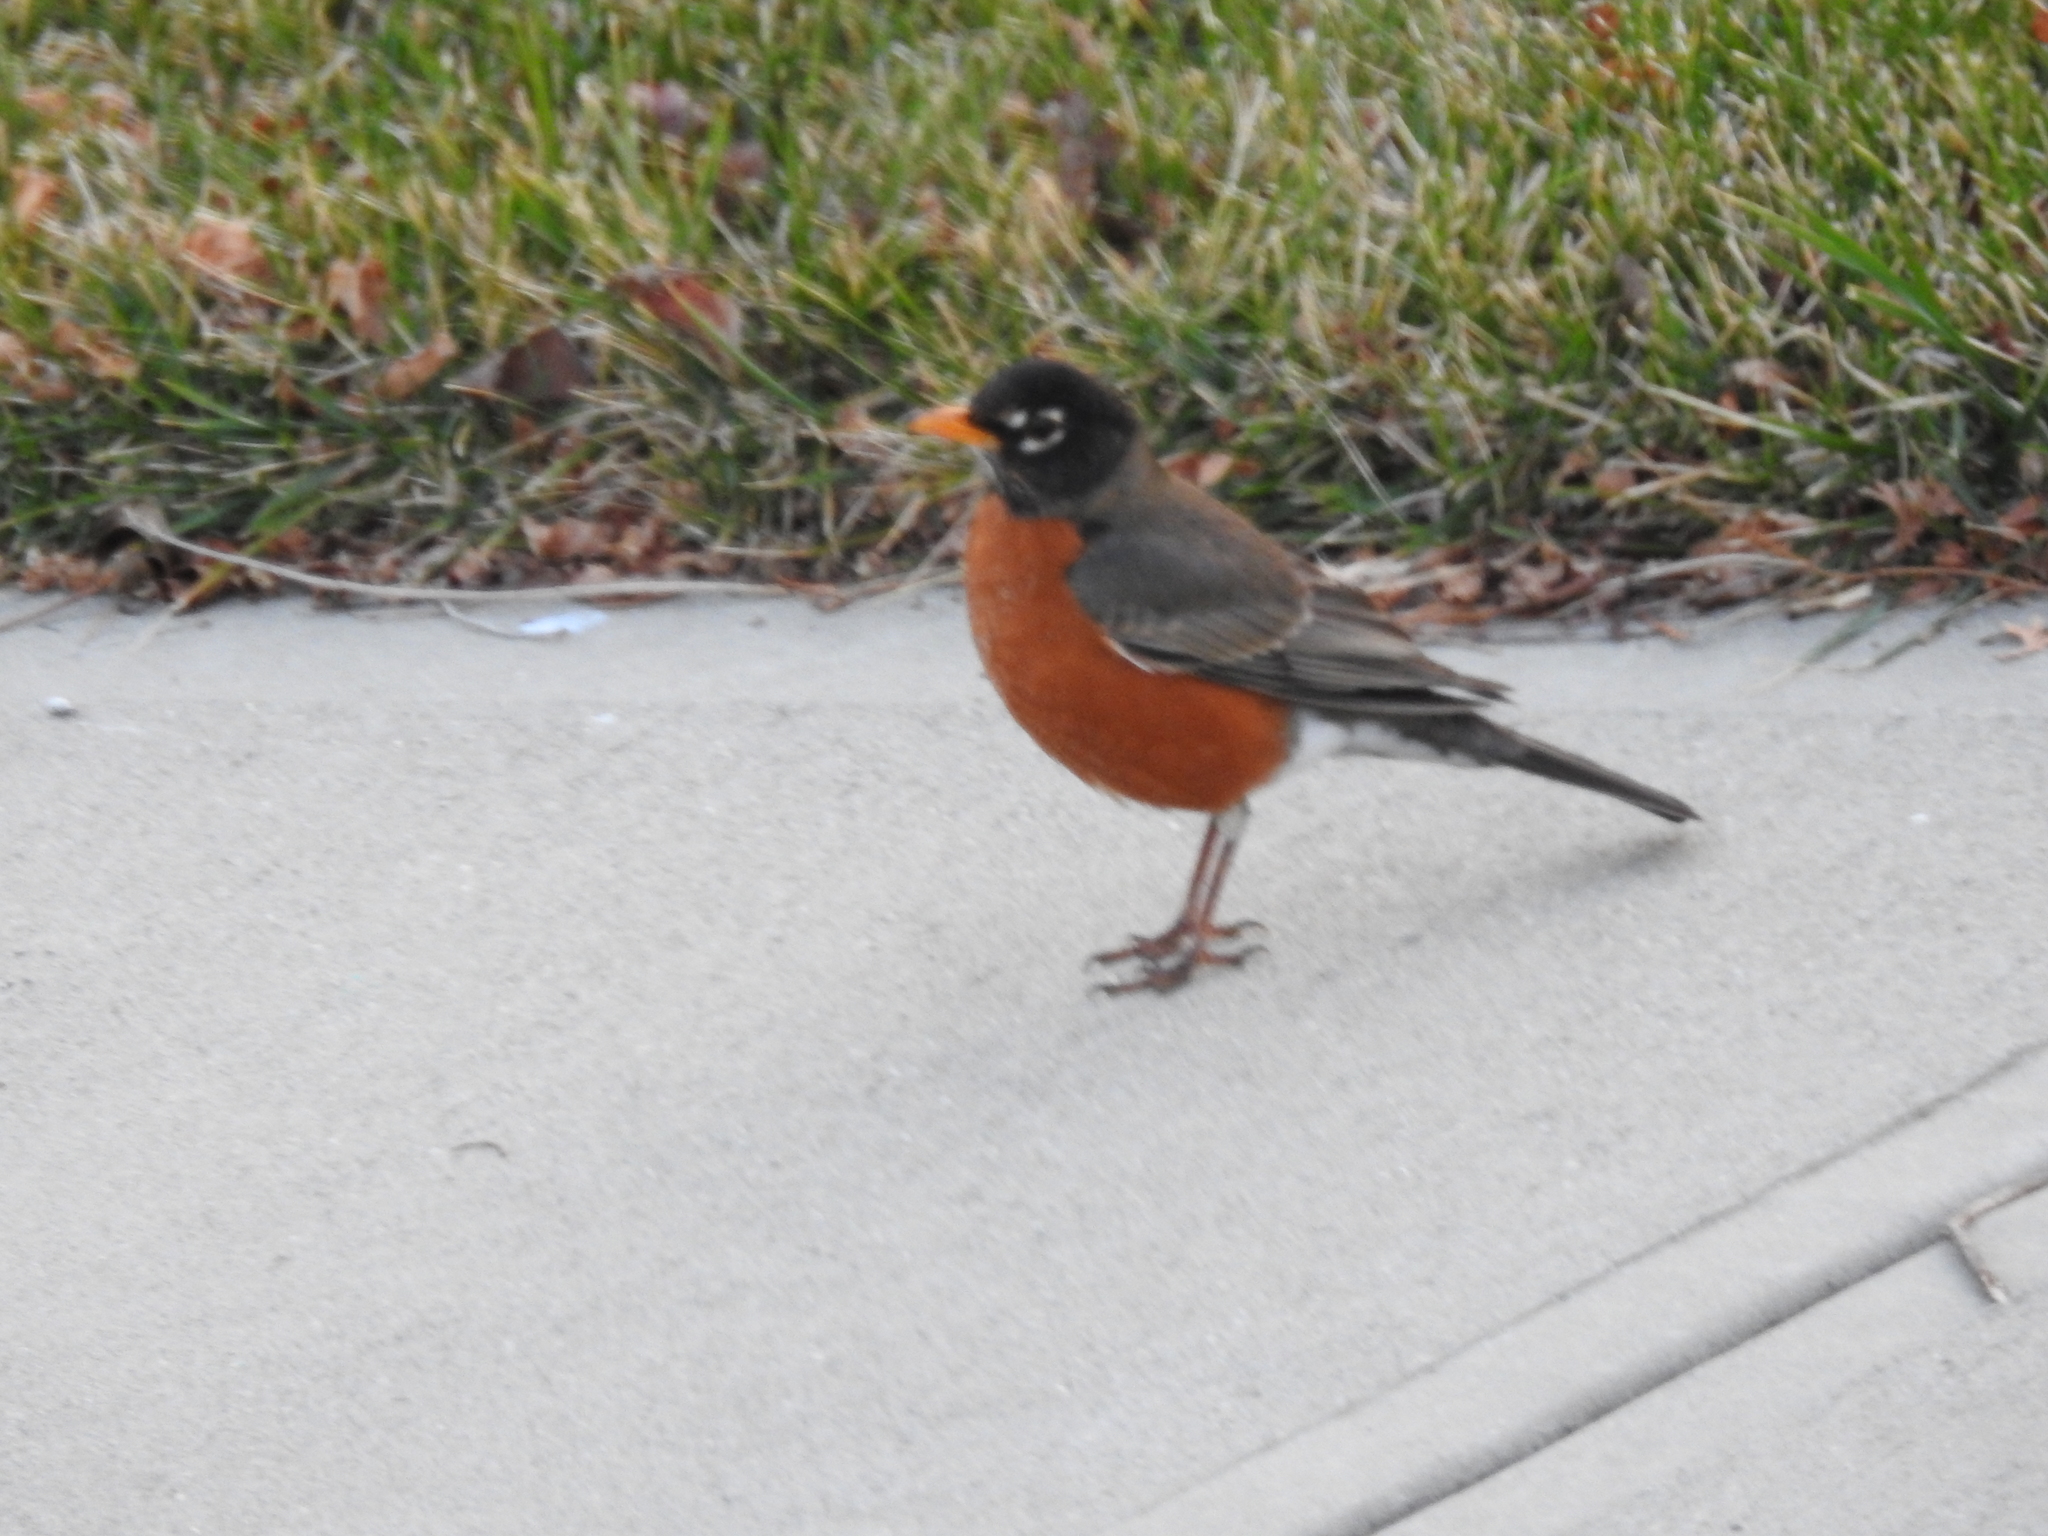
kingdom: Animalia
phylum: Chordata
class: Aves
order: Passeriformes
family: Turdidae
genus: Turdus
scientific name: Turdus migratorius
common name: American robin
